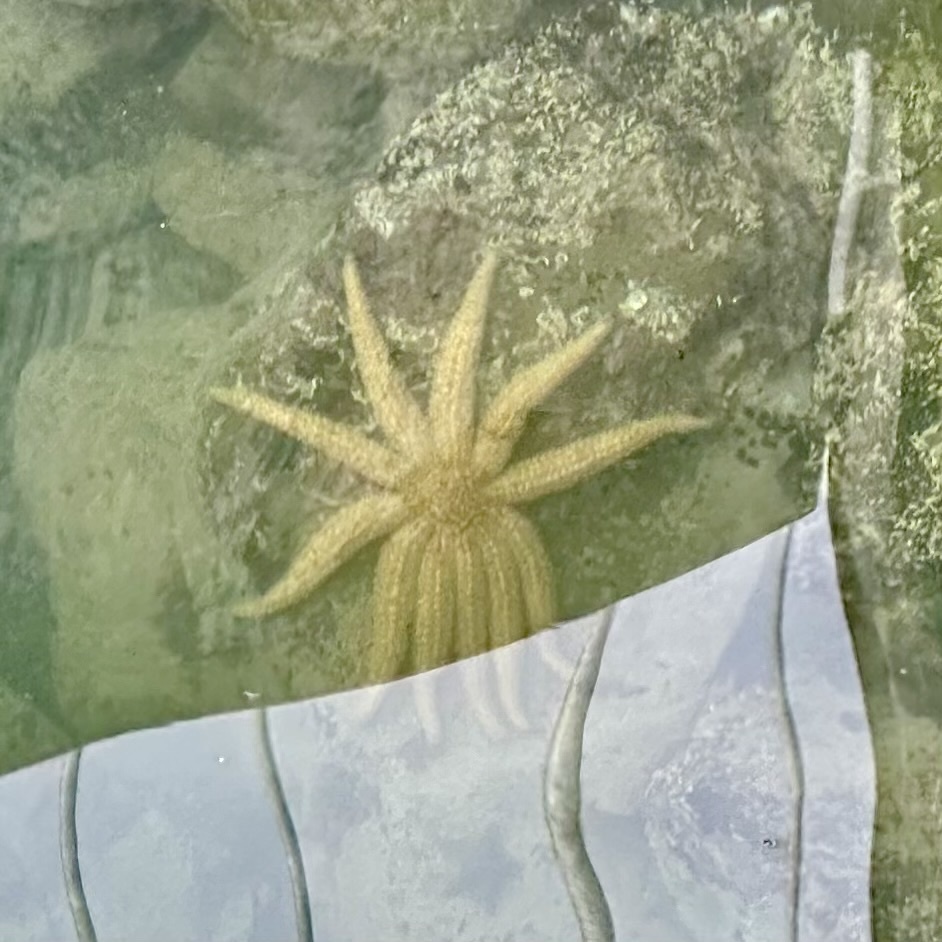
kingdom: Animalia
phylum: Echinodermata
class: Asteroidea
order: Forcipulatida
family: Asteriidae
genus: Coscinasterias
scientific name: Coscinasterias muricata
